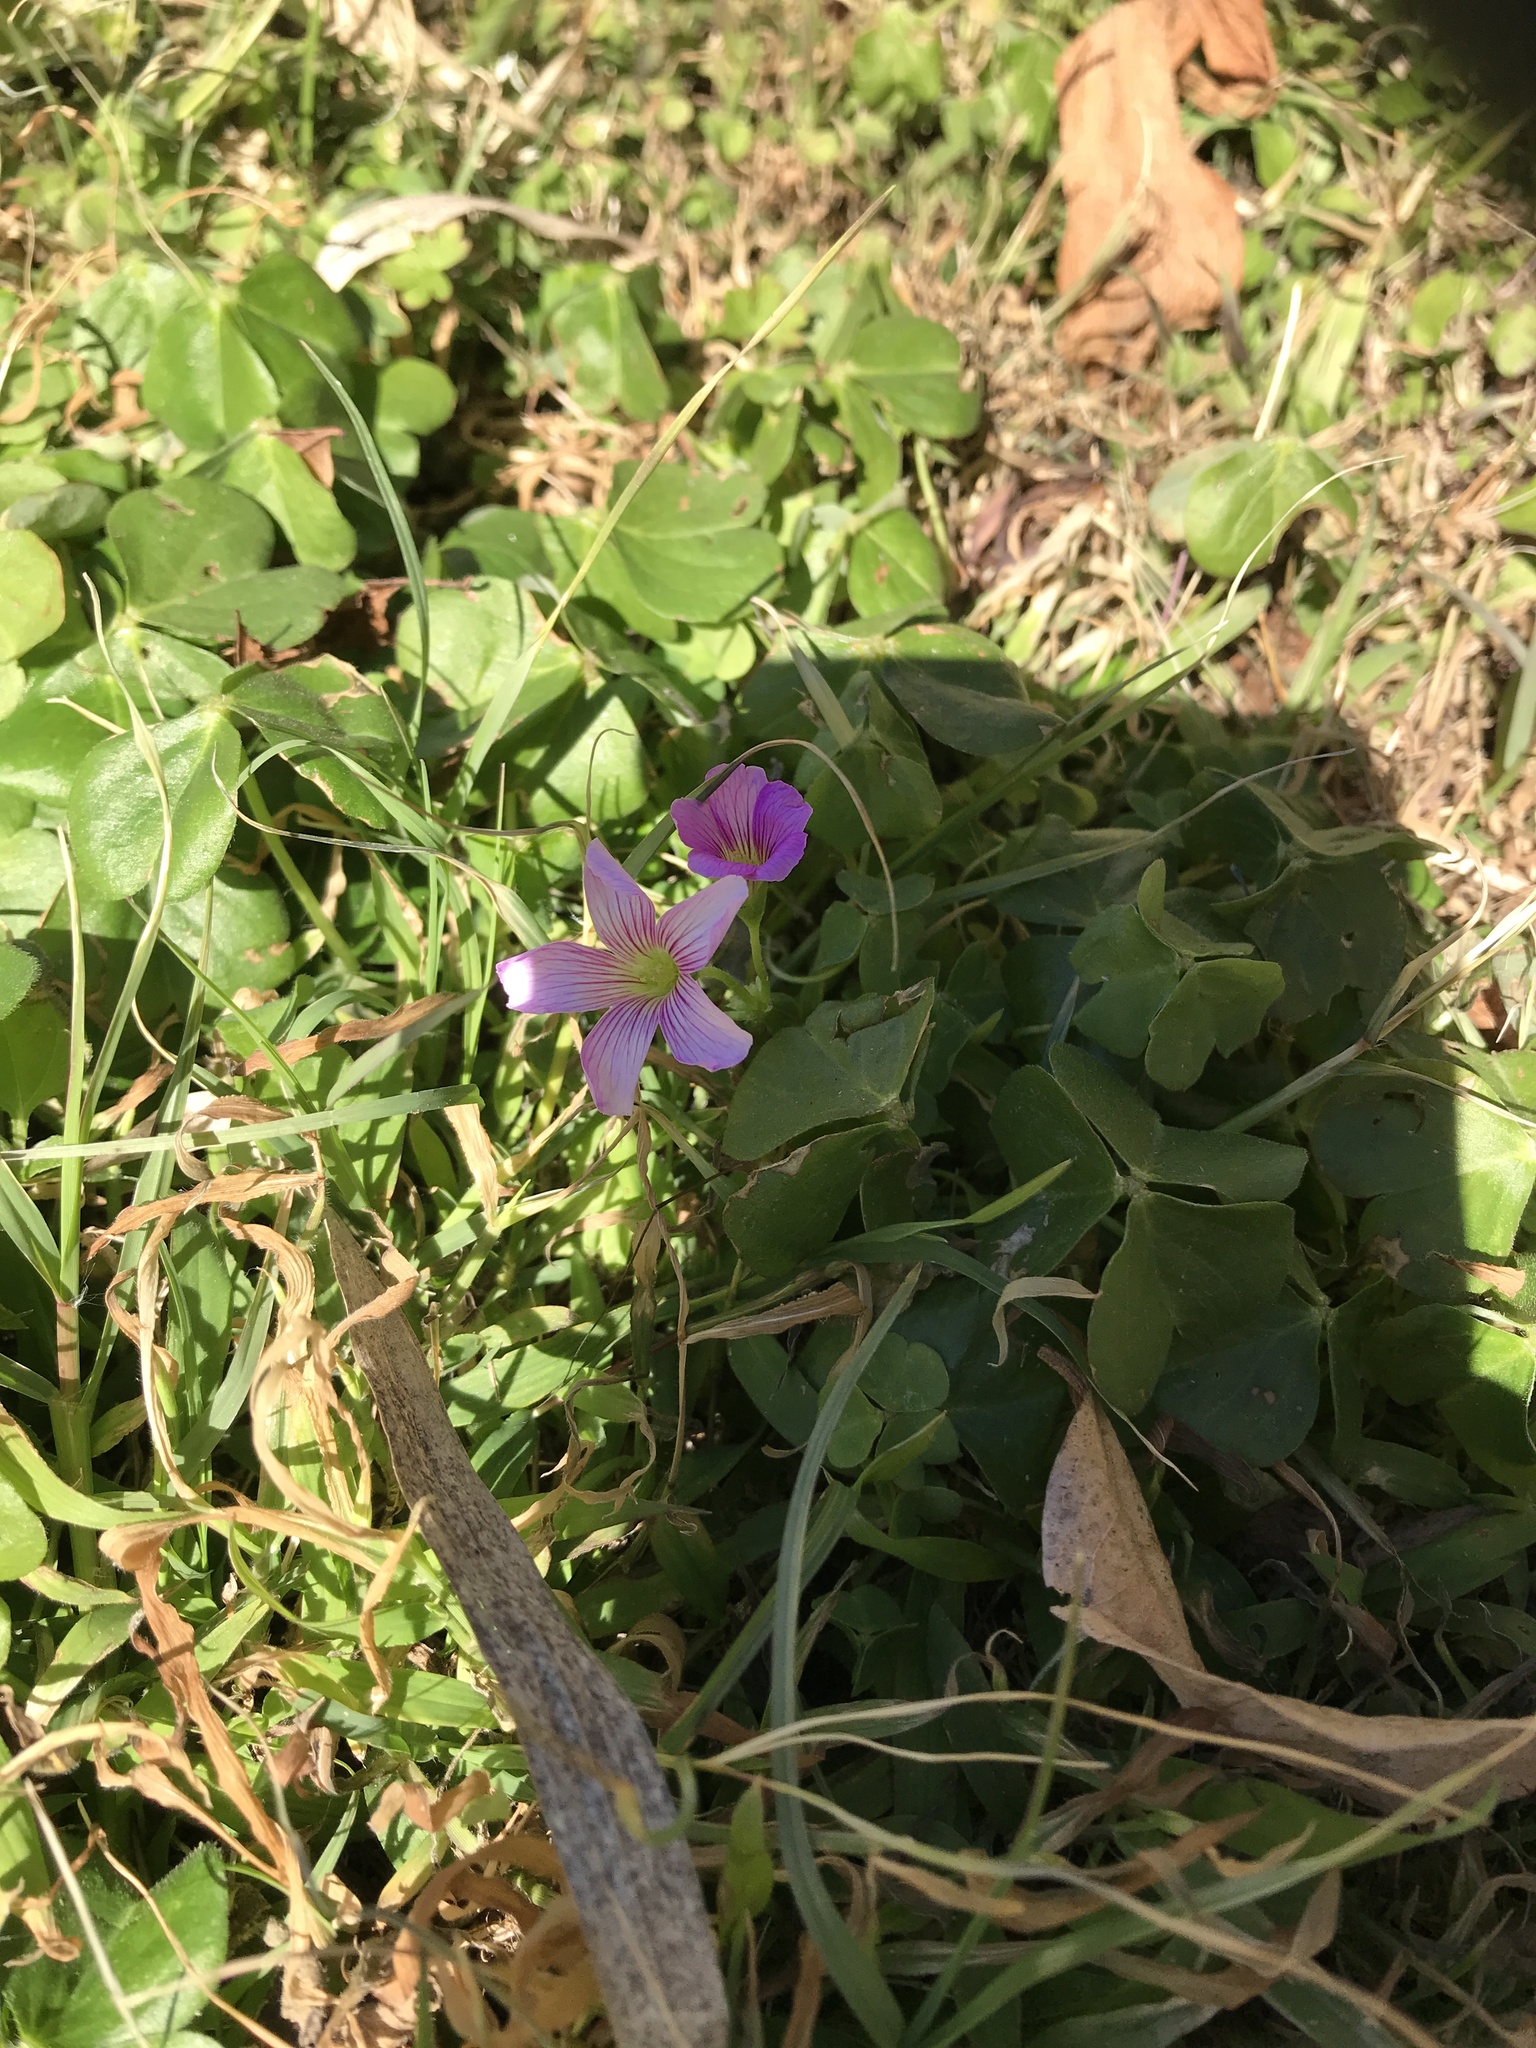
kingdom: Plantae
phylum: Tracheophyta
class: Magnoliopsida
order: Oxalidales
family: Oxalidaceae
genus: Oxalis
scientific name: Oxalis debilis
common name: Large-flowered pink-sorrel
